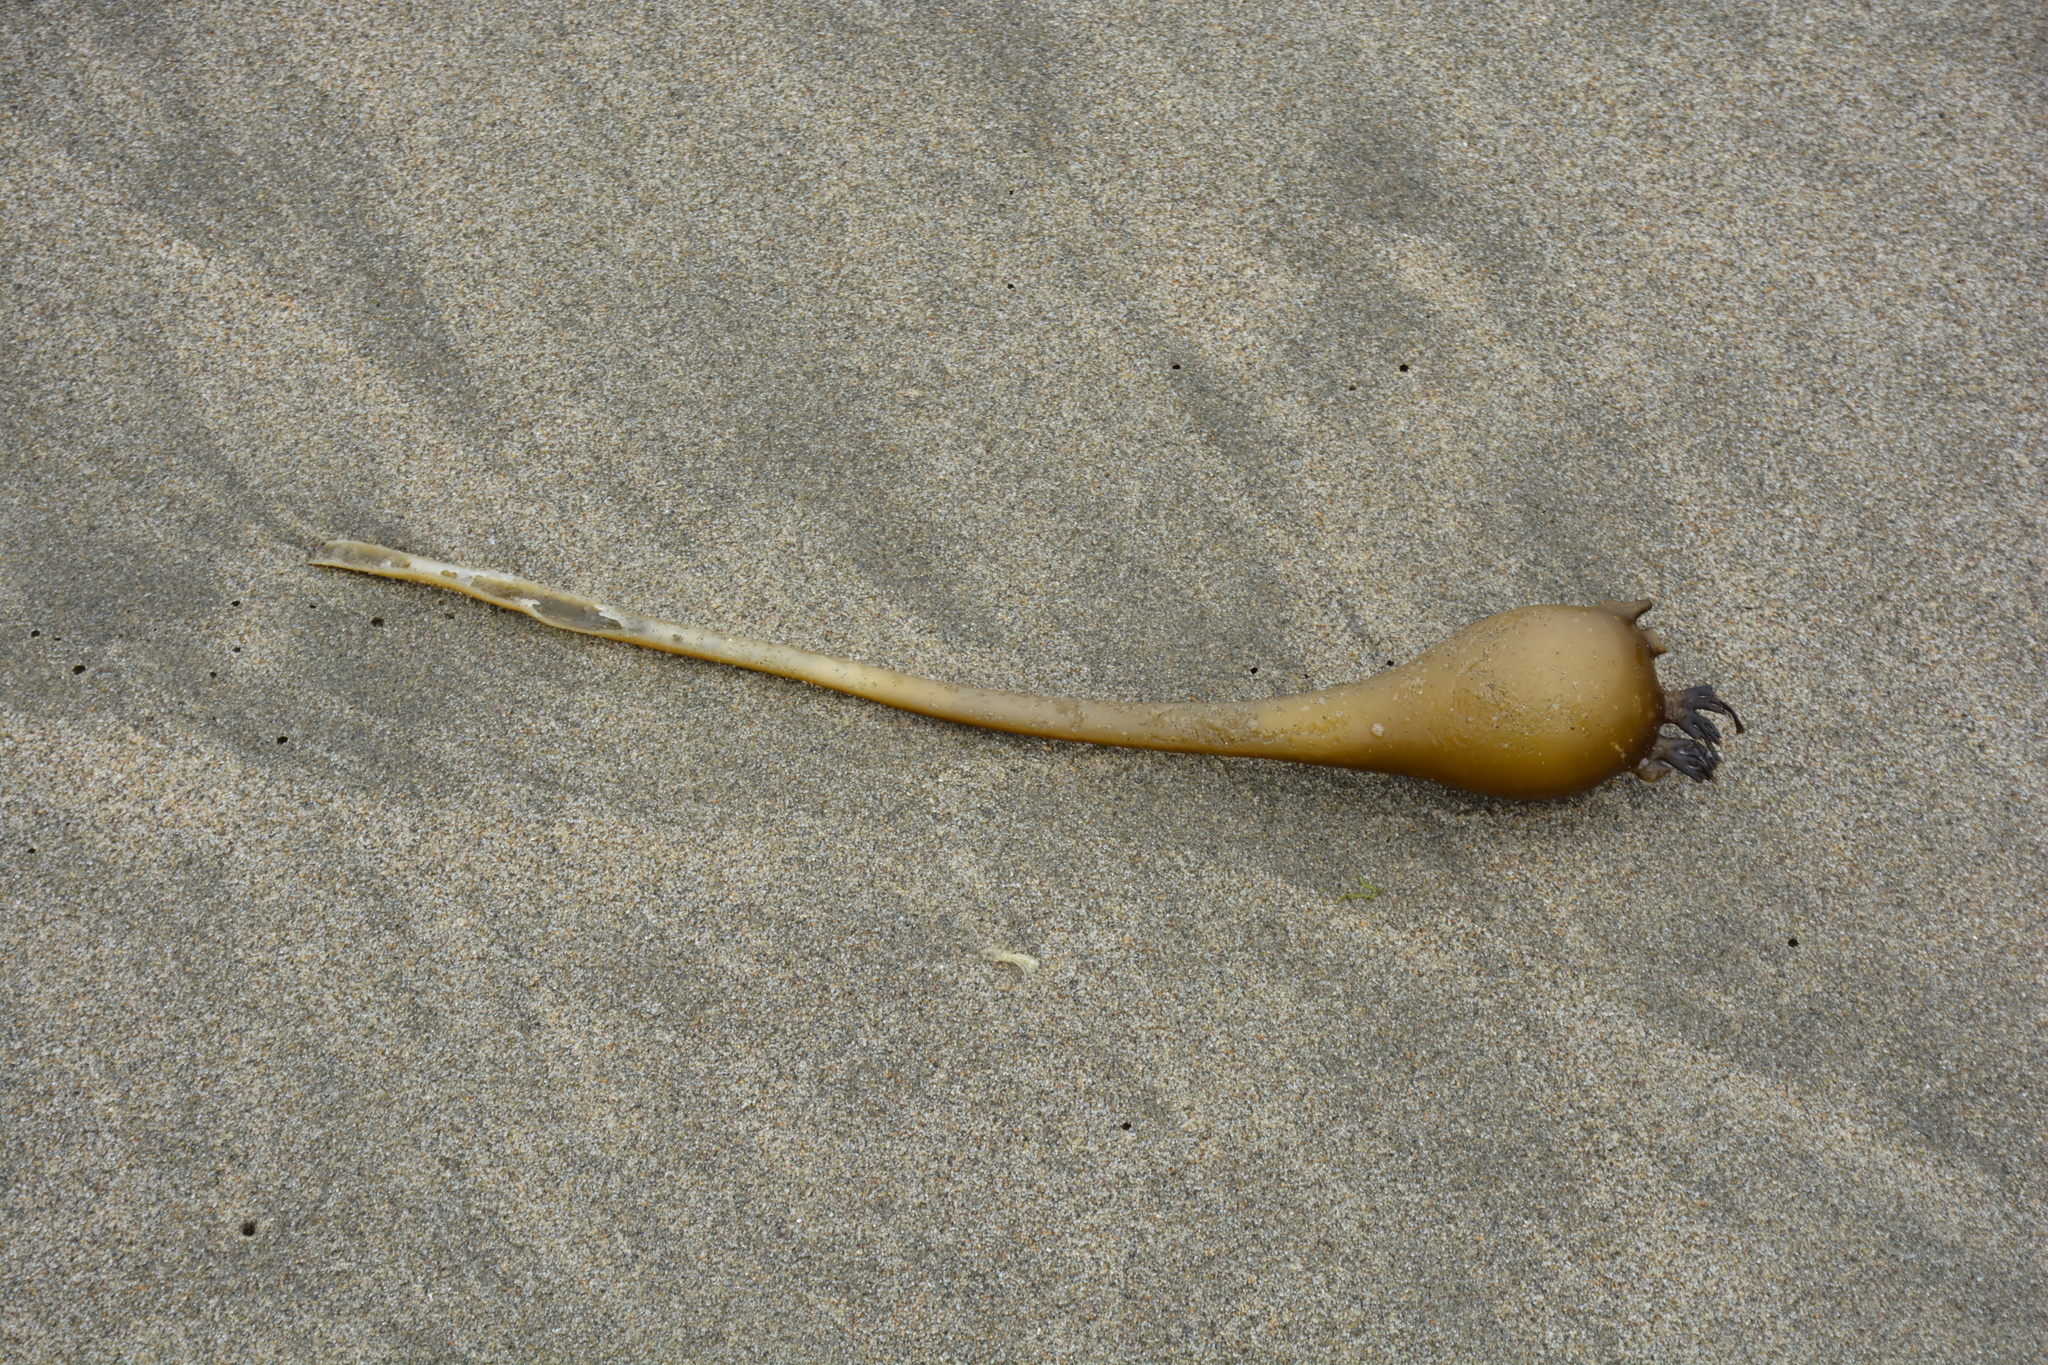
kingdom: Chromista
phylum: Ochrophyta
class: Phaeophyceae
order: Laminariales
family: Laminariaceae
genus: Nereocystis
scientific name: Nereocystis luetkeana
